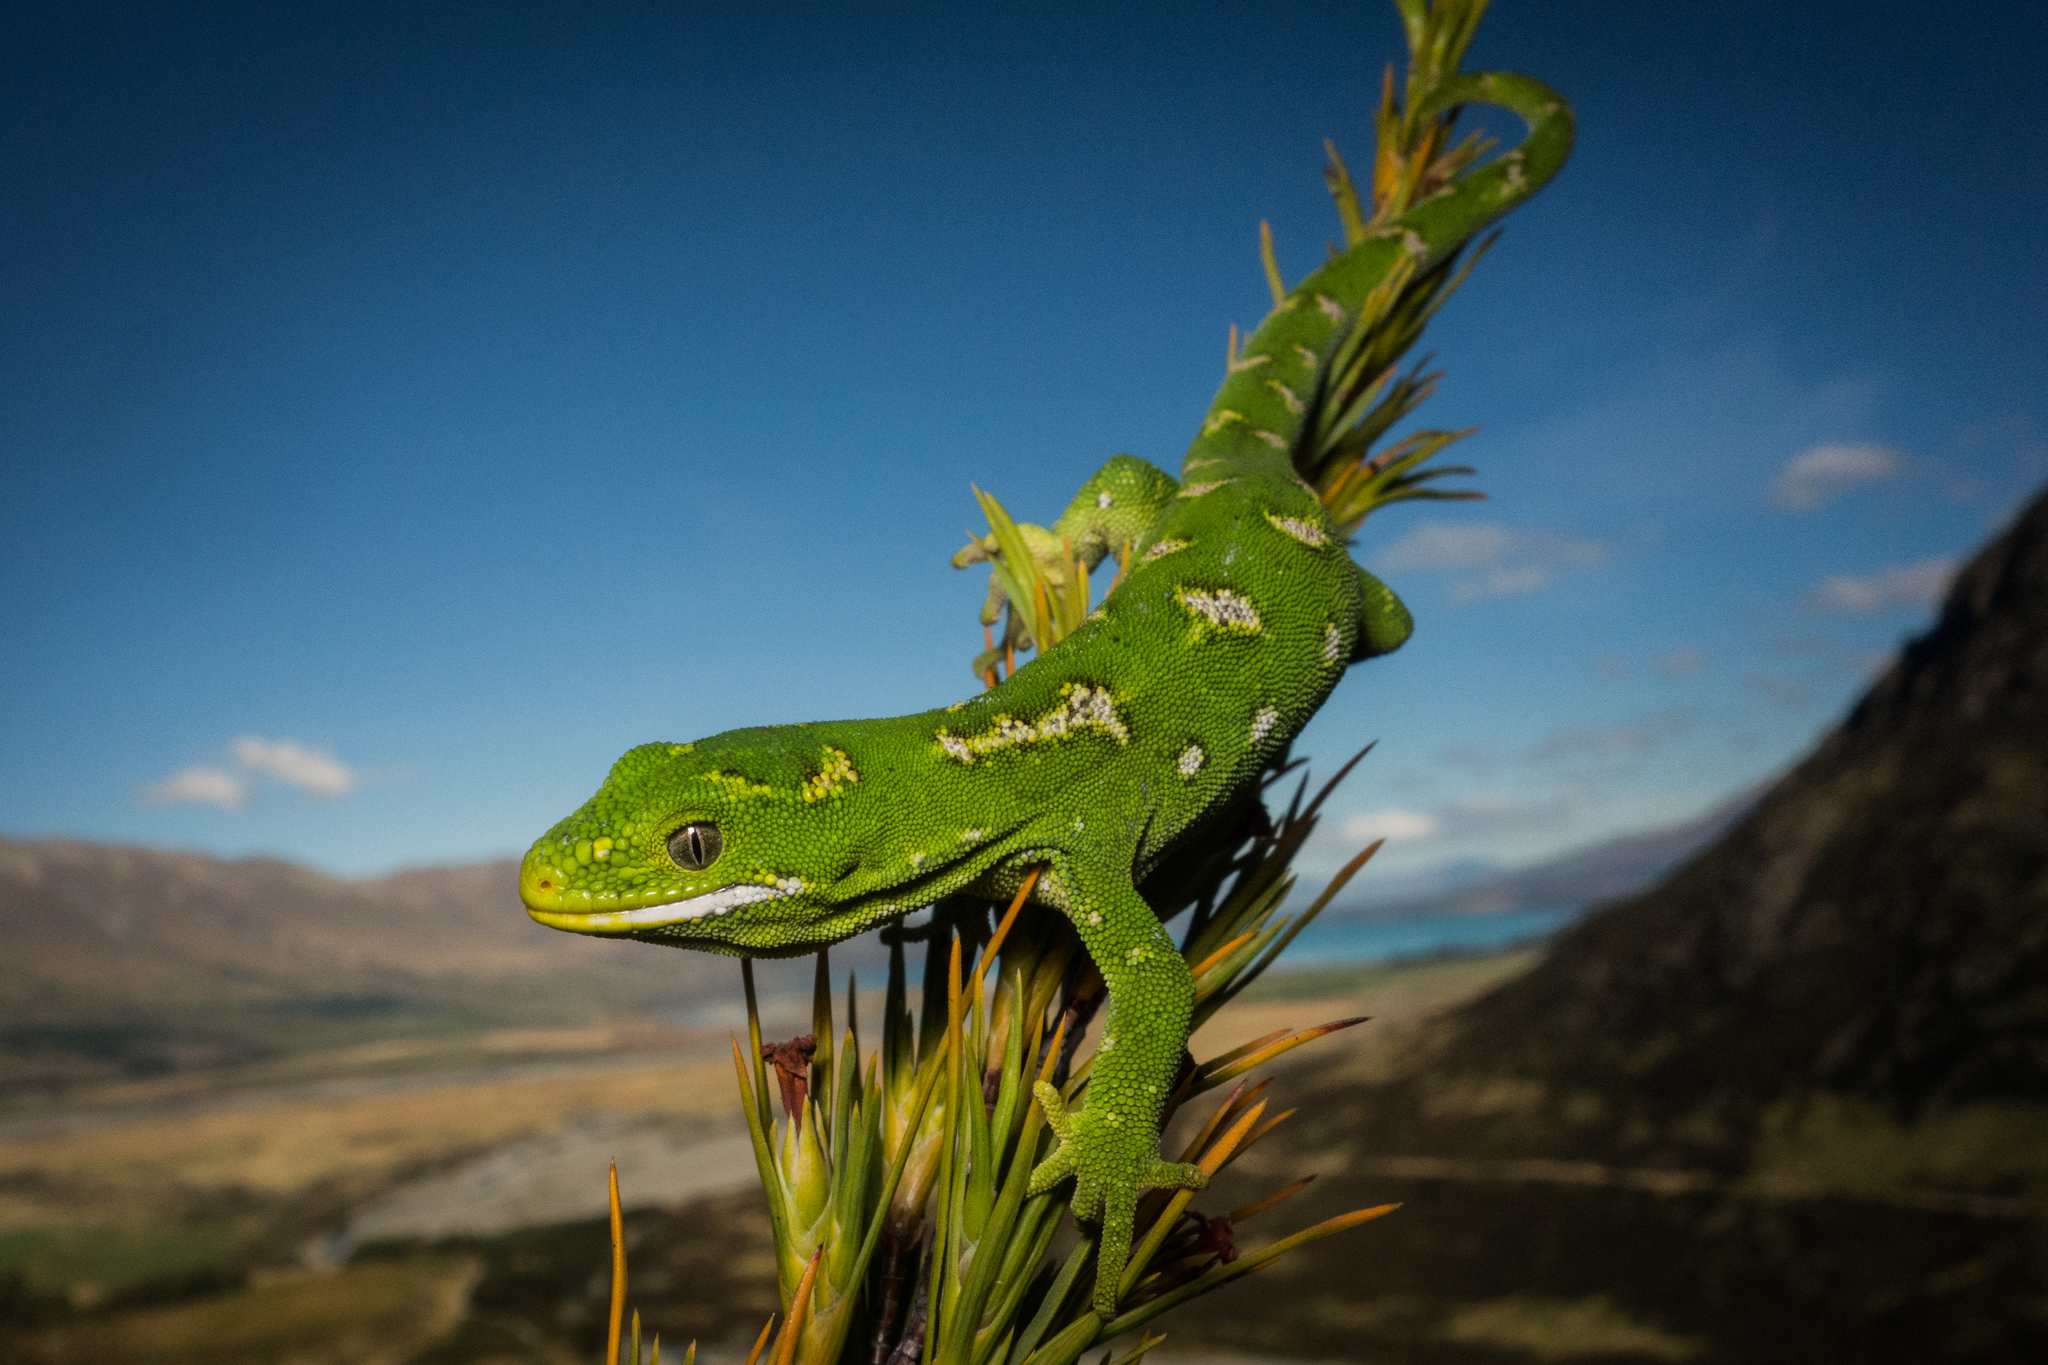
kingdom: Animalia
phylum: Chordata
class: Squamata
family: Diplodactylidae
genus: Naultinus
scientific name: Naultinus gemmeus
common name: Jewelled gecko
